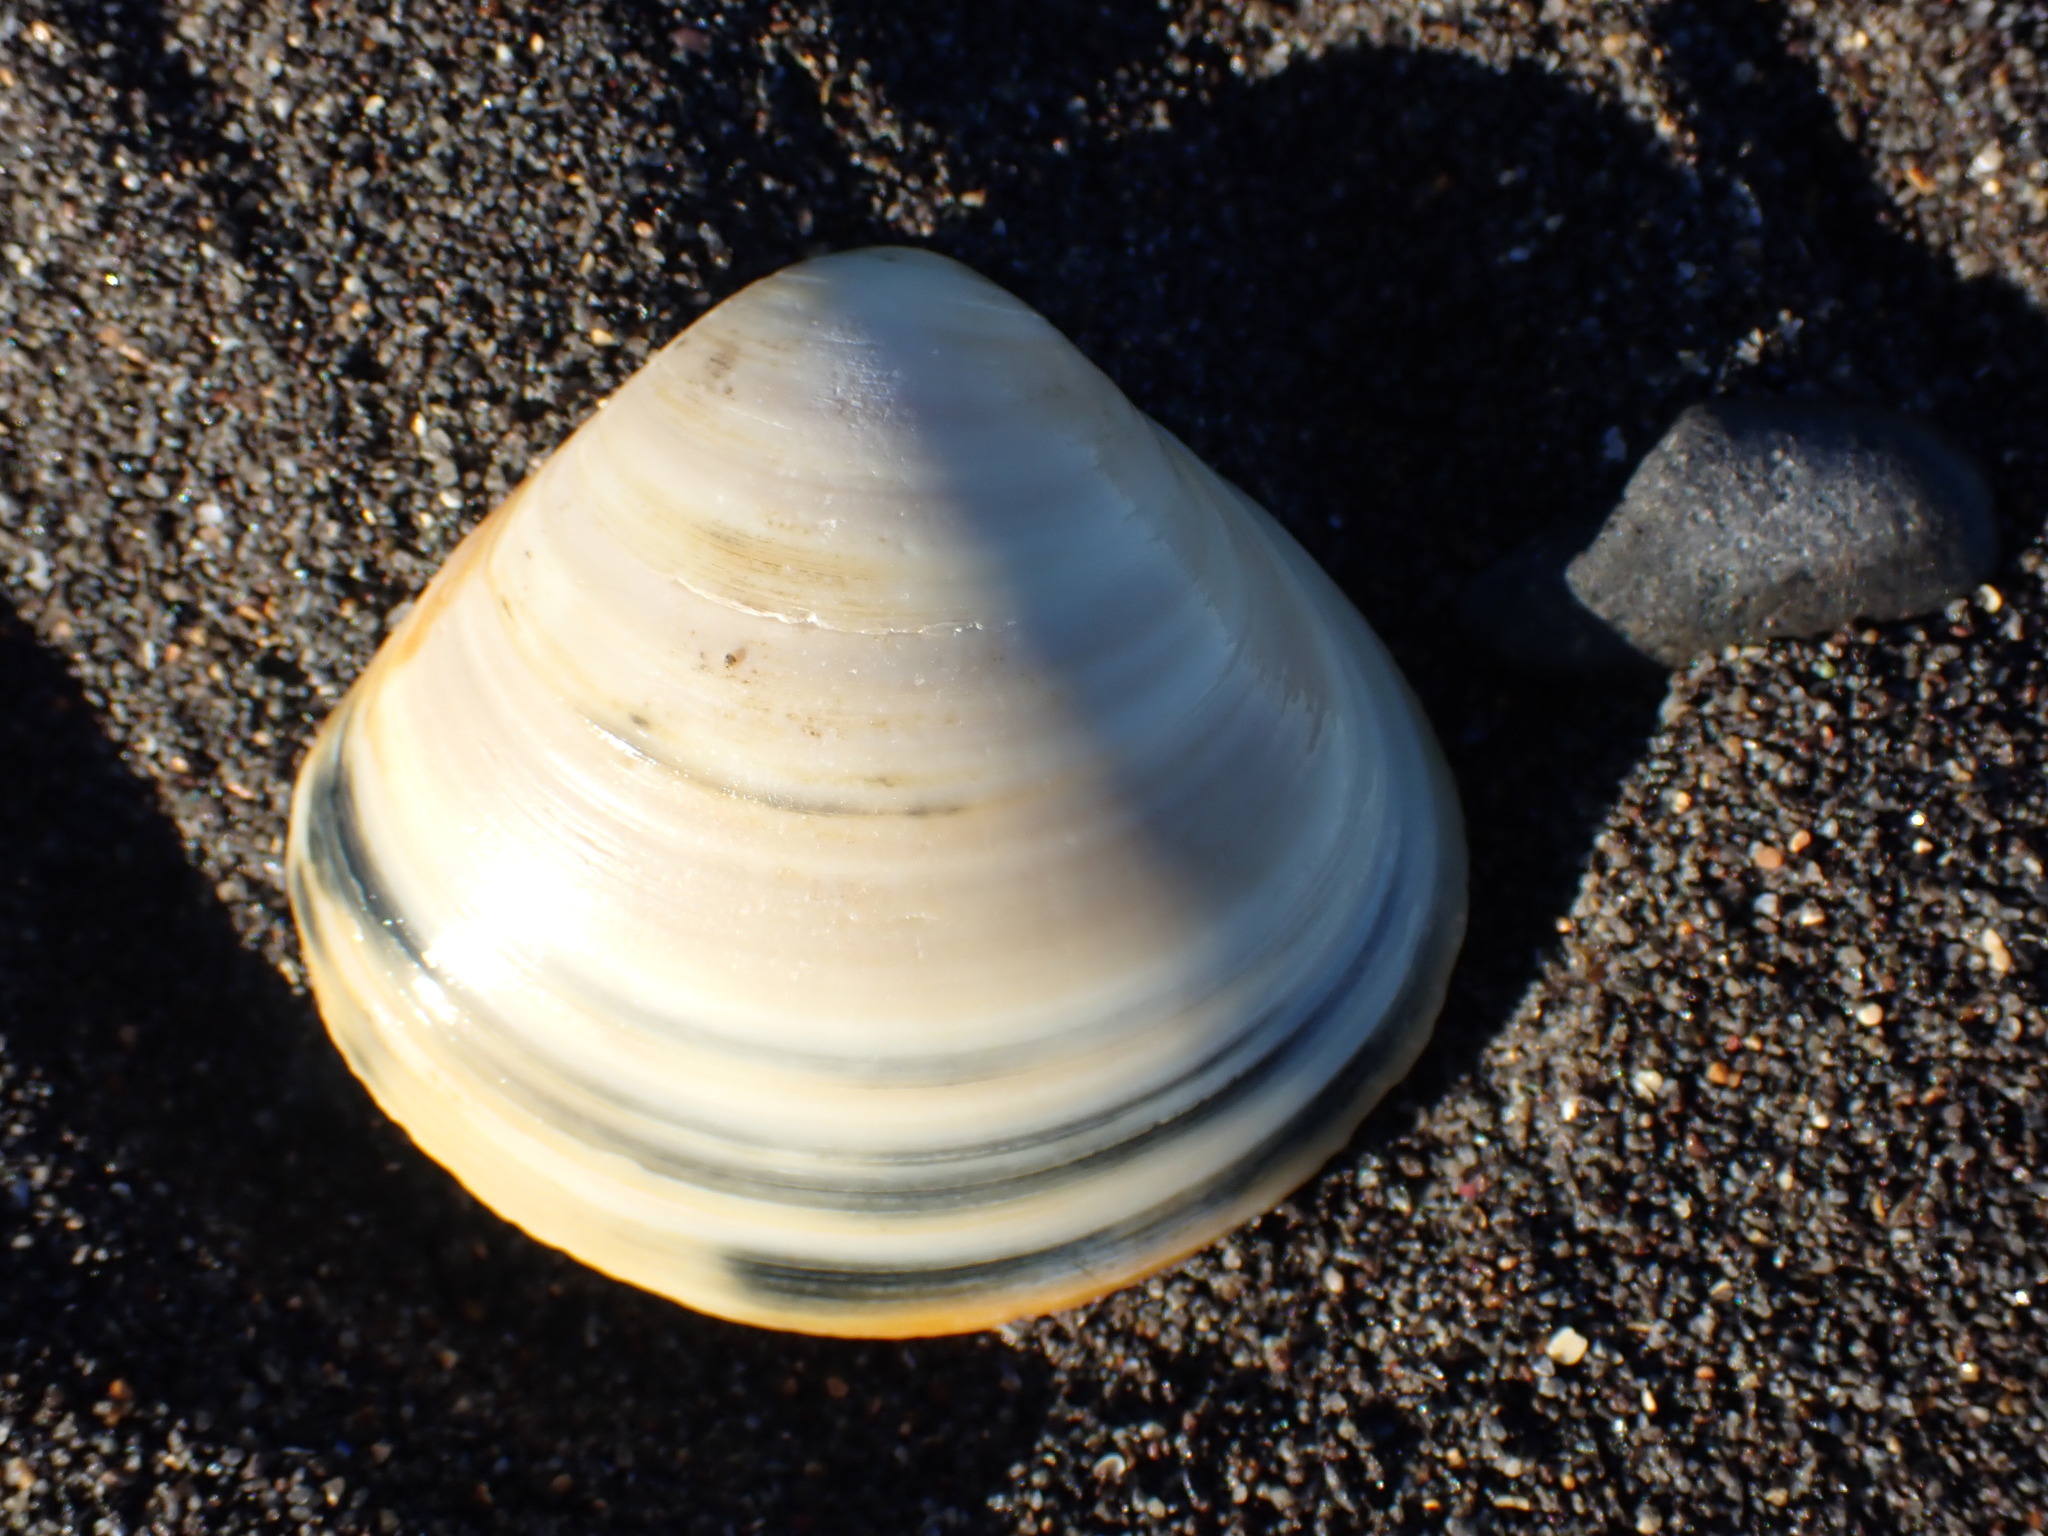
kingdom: Animalia
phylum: Mollusca
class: Bivalvia
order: Venerida
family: Mactridae
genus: Spisula
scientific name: Spisula murchisoni
